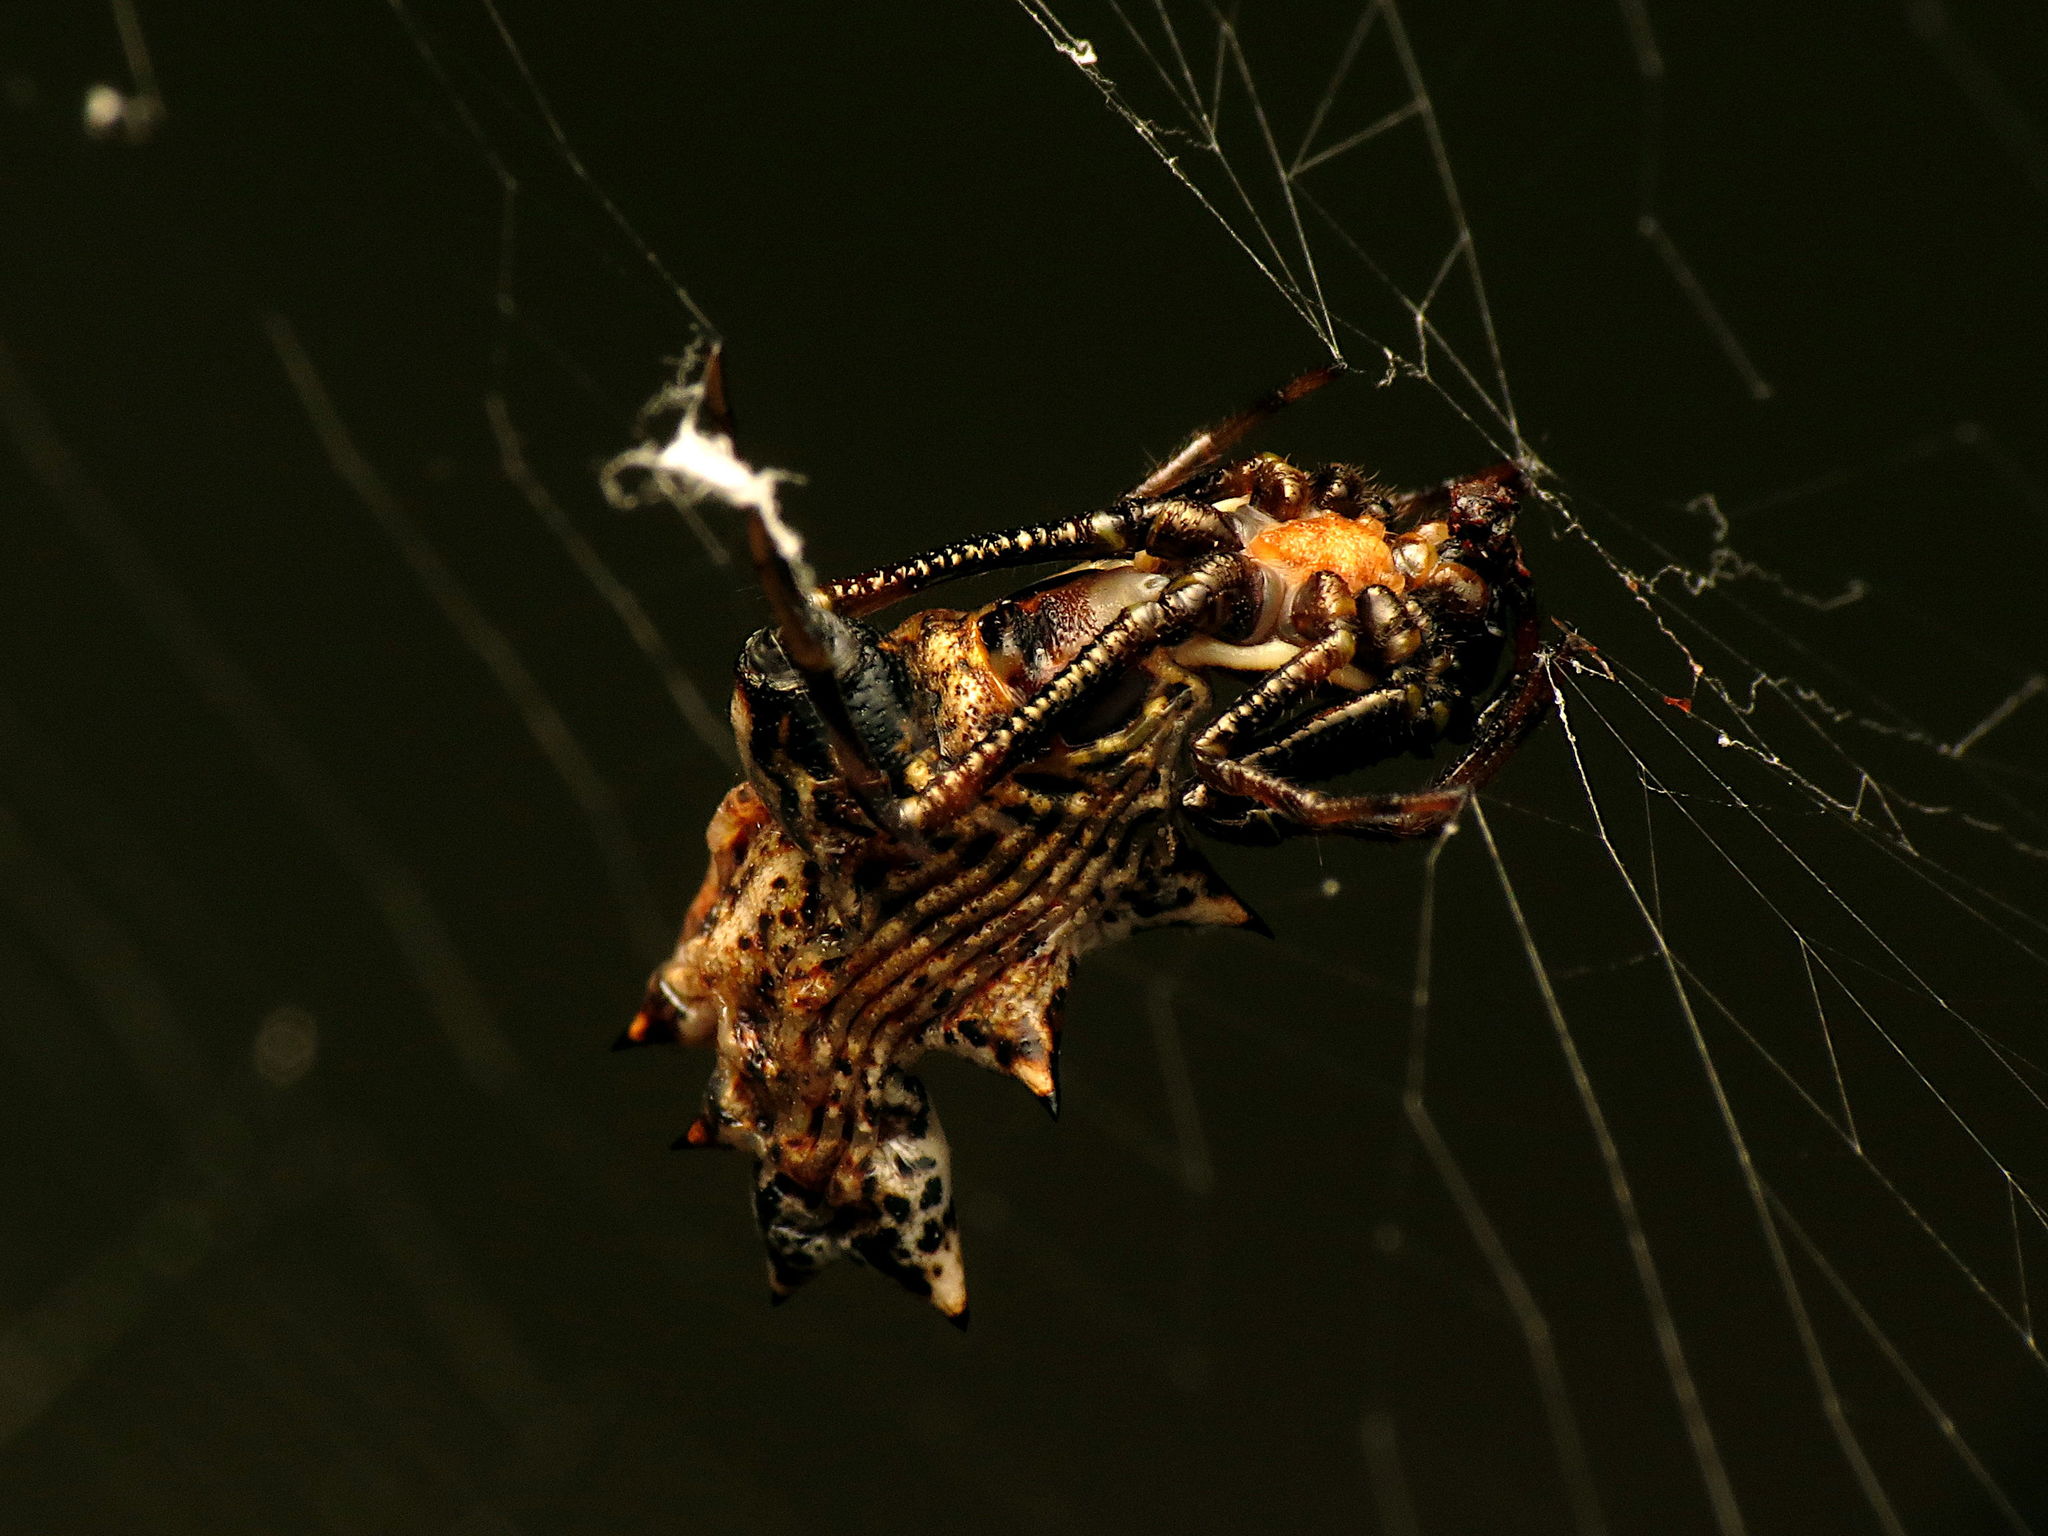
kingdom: Animalia
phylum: Arthropoda
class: Arachnida
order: Araneae
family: Araneidae
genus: Micrathena
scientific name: Micrathena gracilis
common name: Orb weavers
